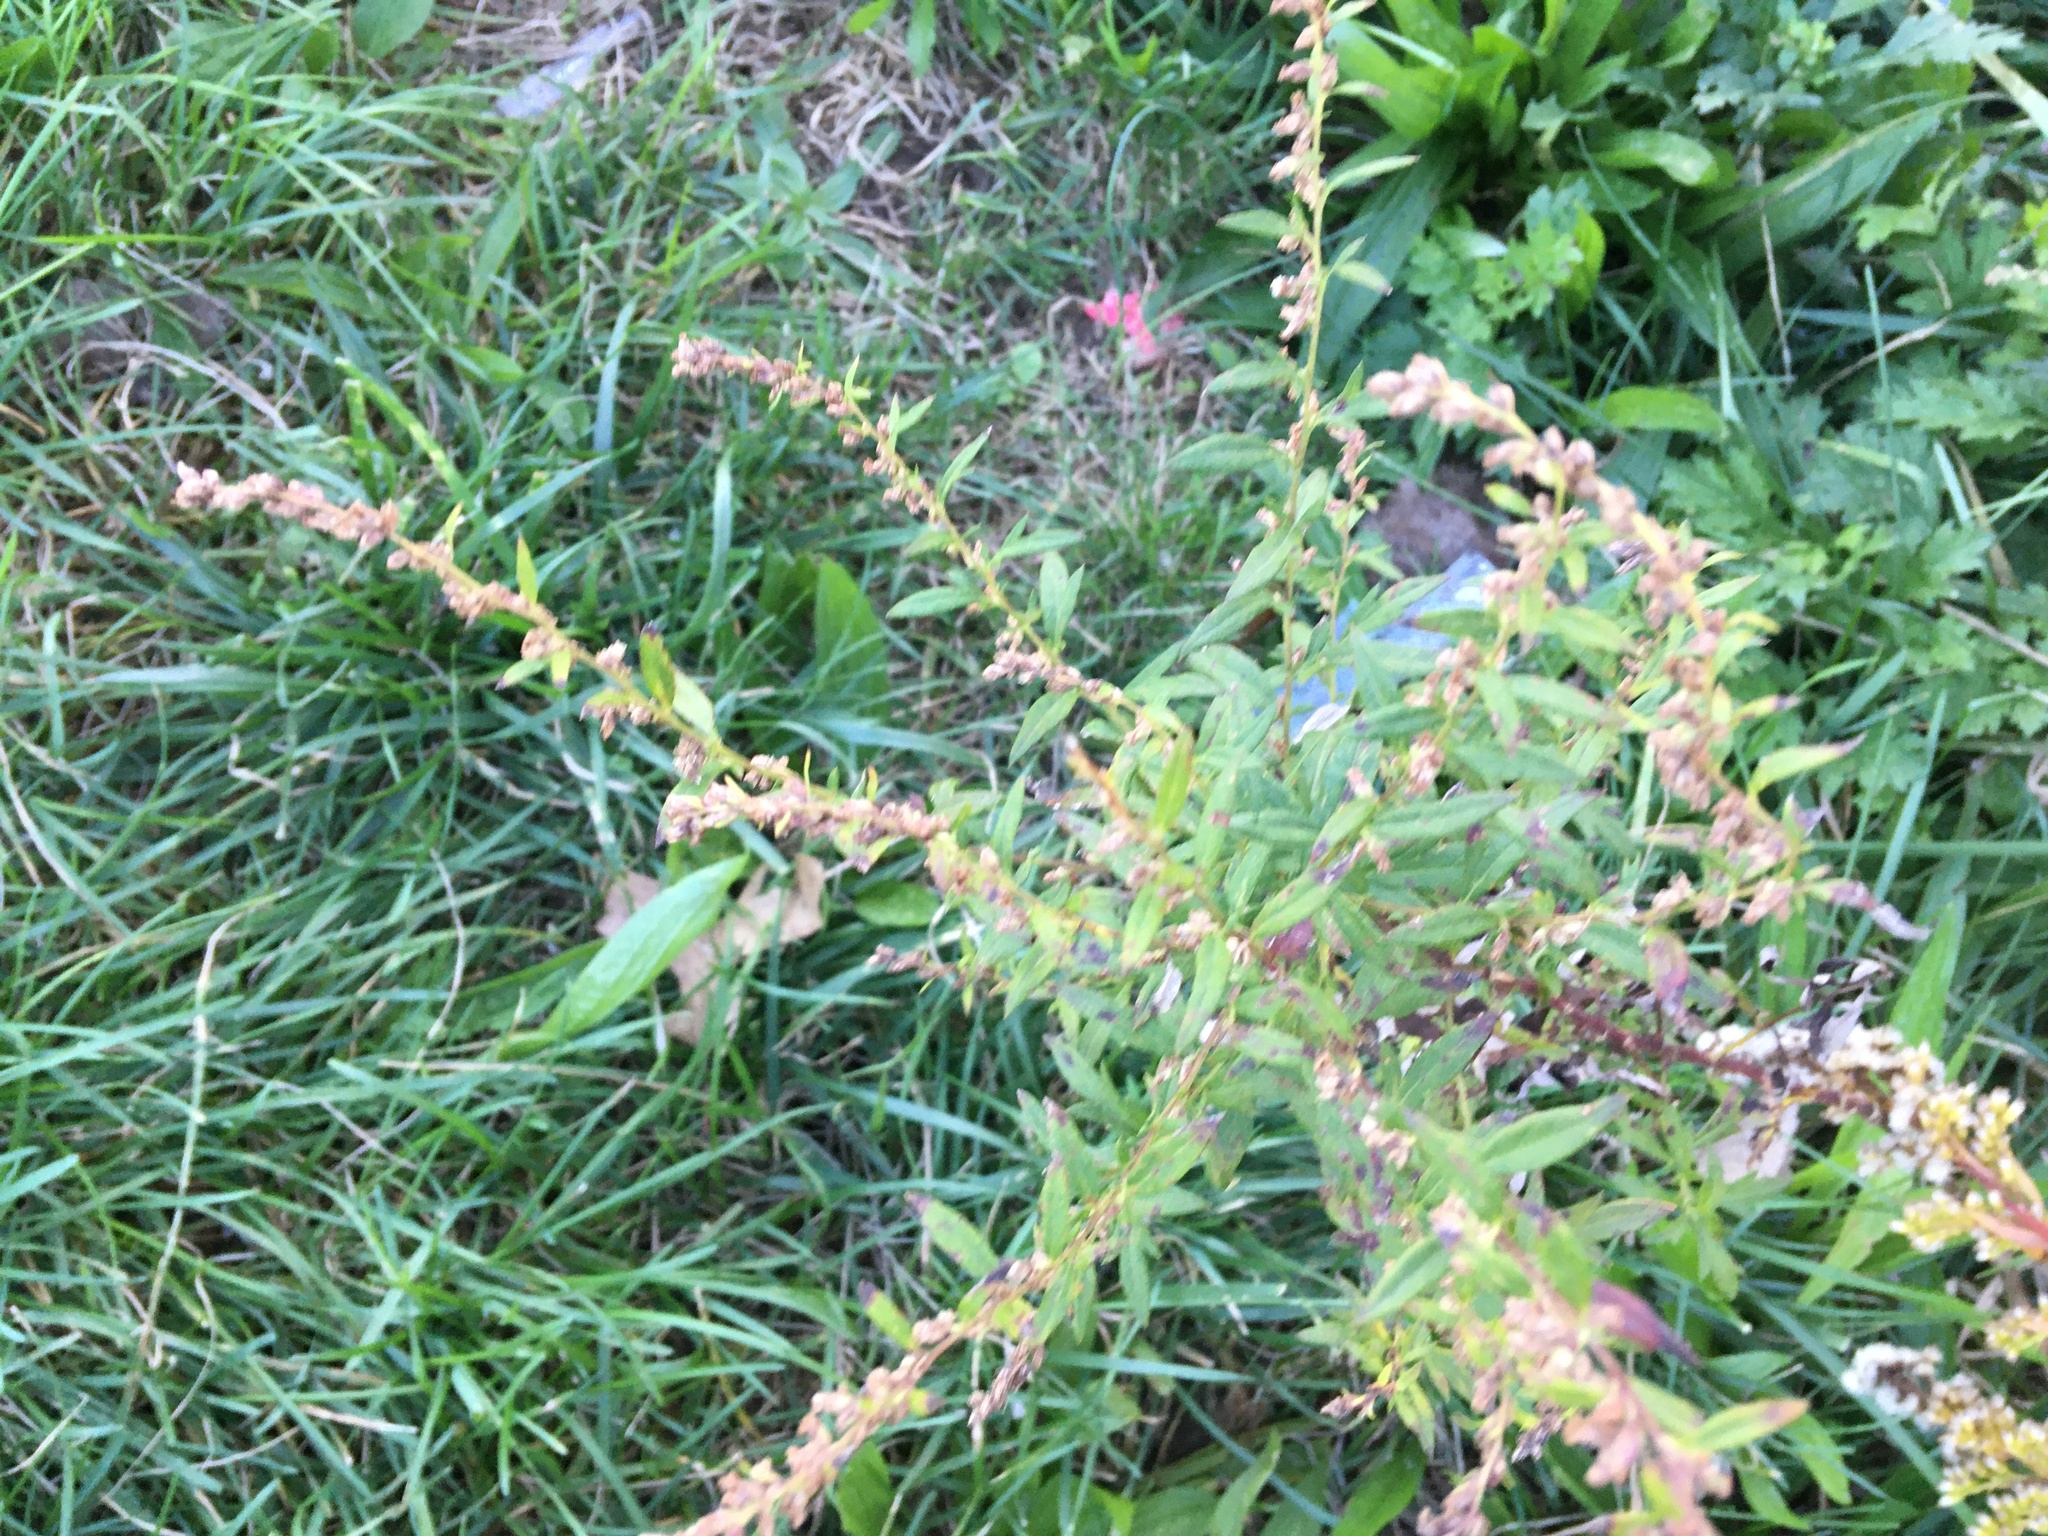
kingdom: Plantae
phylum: Tracheophyta
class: Magnoliopsida
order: Asterales
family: Asteraceae
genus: Artemisia
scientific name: Artemisia vulgaris
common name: Mugwort
